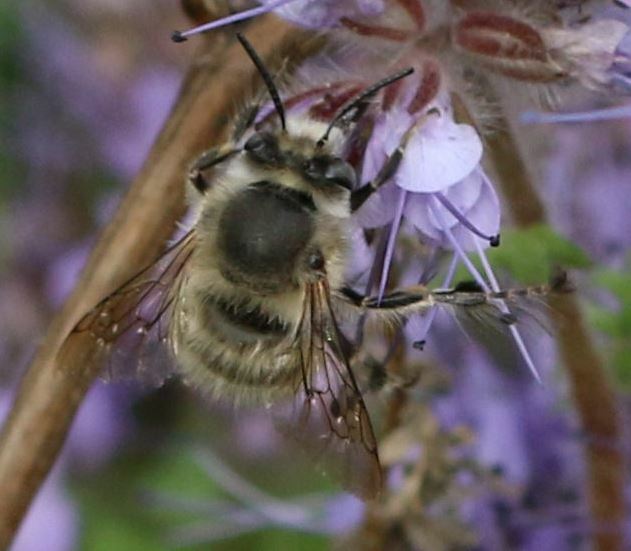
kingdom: Animalia
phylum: Arthropoda
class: Insecta
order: Hymenoptera
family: Apidae
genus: Anthophora
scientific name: Anthophora plumipes
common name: Hairy-footed flower bee
